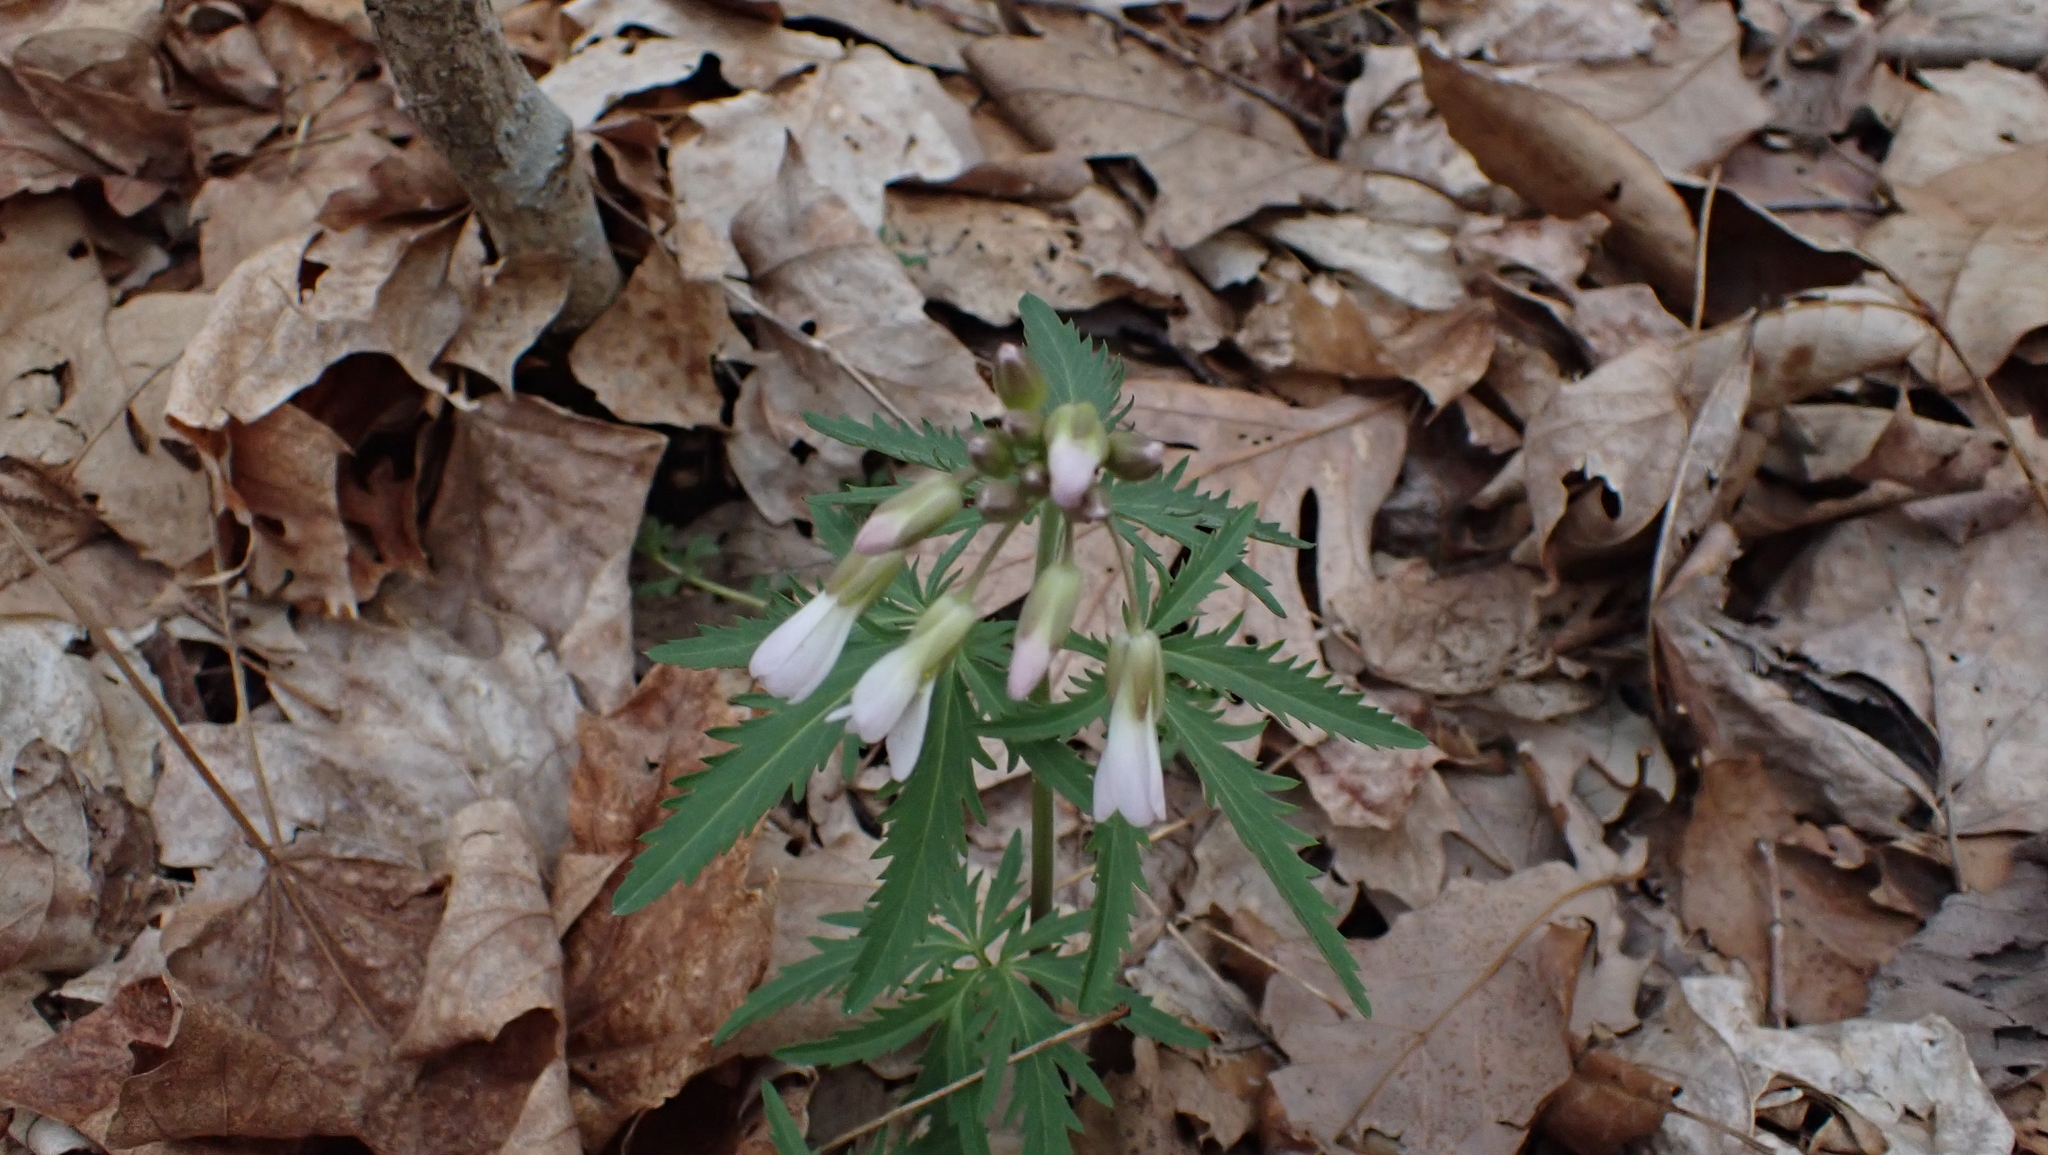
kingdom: Plantae
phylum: Tracheophyta
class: Magnoliopsida
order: Brassicales
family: Brassicaceae
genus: Cardamine
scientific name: Cardamine concatenata
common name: Cut-leaf toothcup
